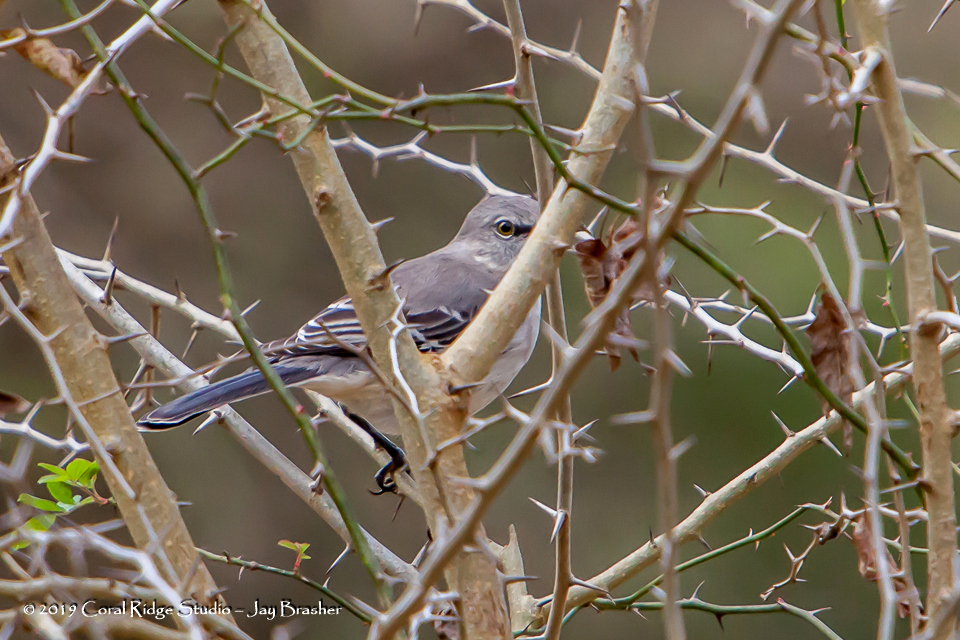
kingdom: Animalia
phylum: Chordata
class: Aves
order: Passeriformes
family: Mimidae
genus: Mimus
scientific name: Mimus polyglottos
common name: Northern mockingbird
